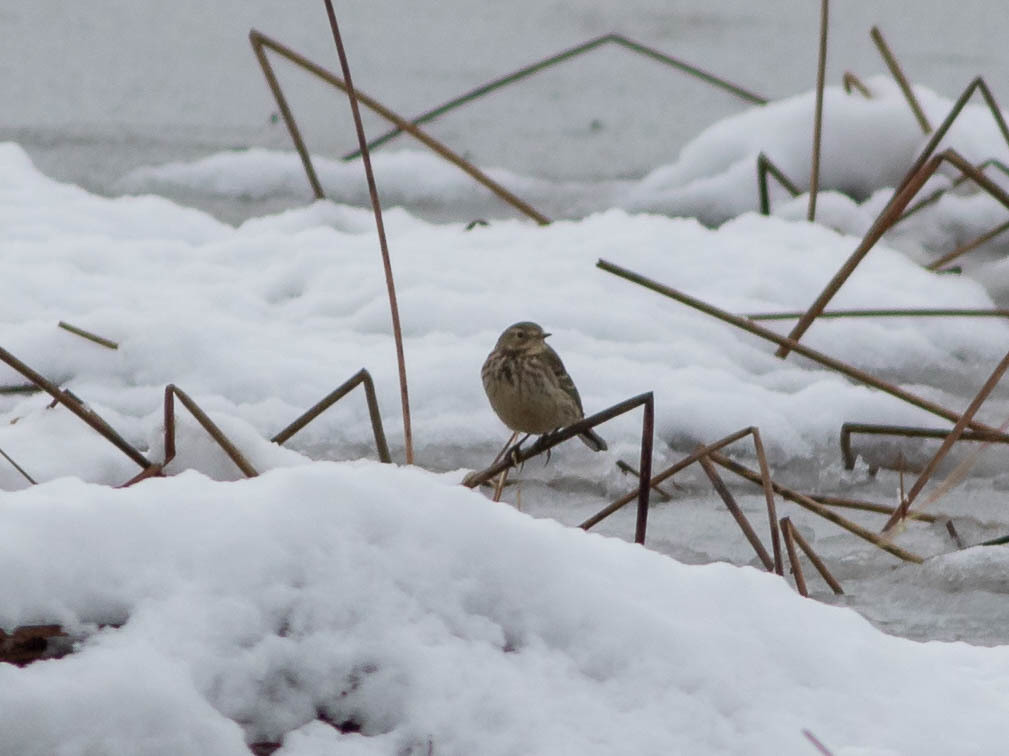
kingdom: Animalia
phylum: Chordata
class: Aves
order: Passeriformes
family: Motacillidae
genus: Anthus
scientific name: Anthus rubescens
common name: Buff-bellied pipit
